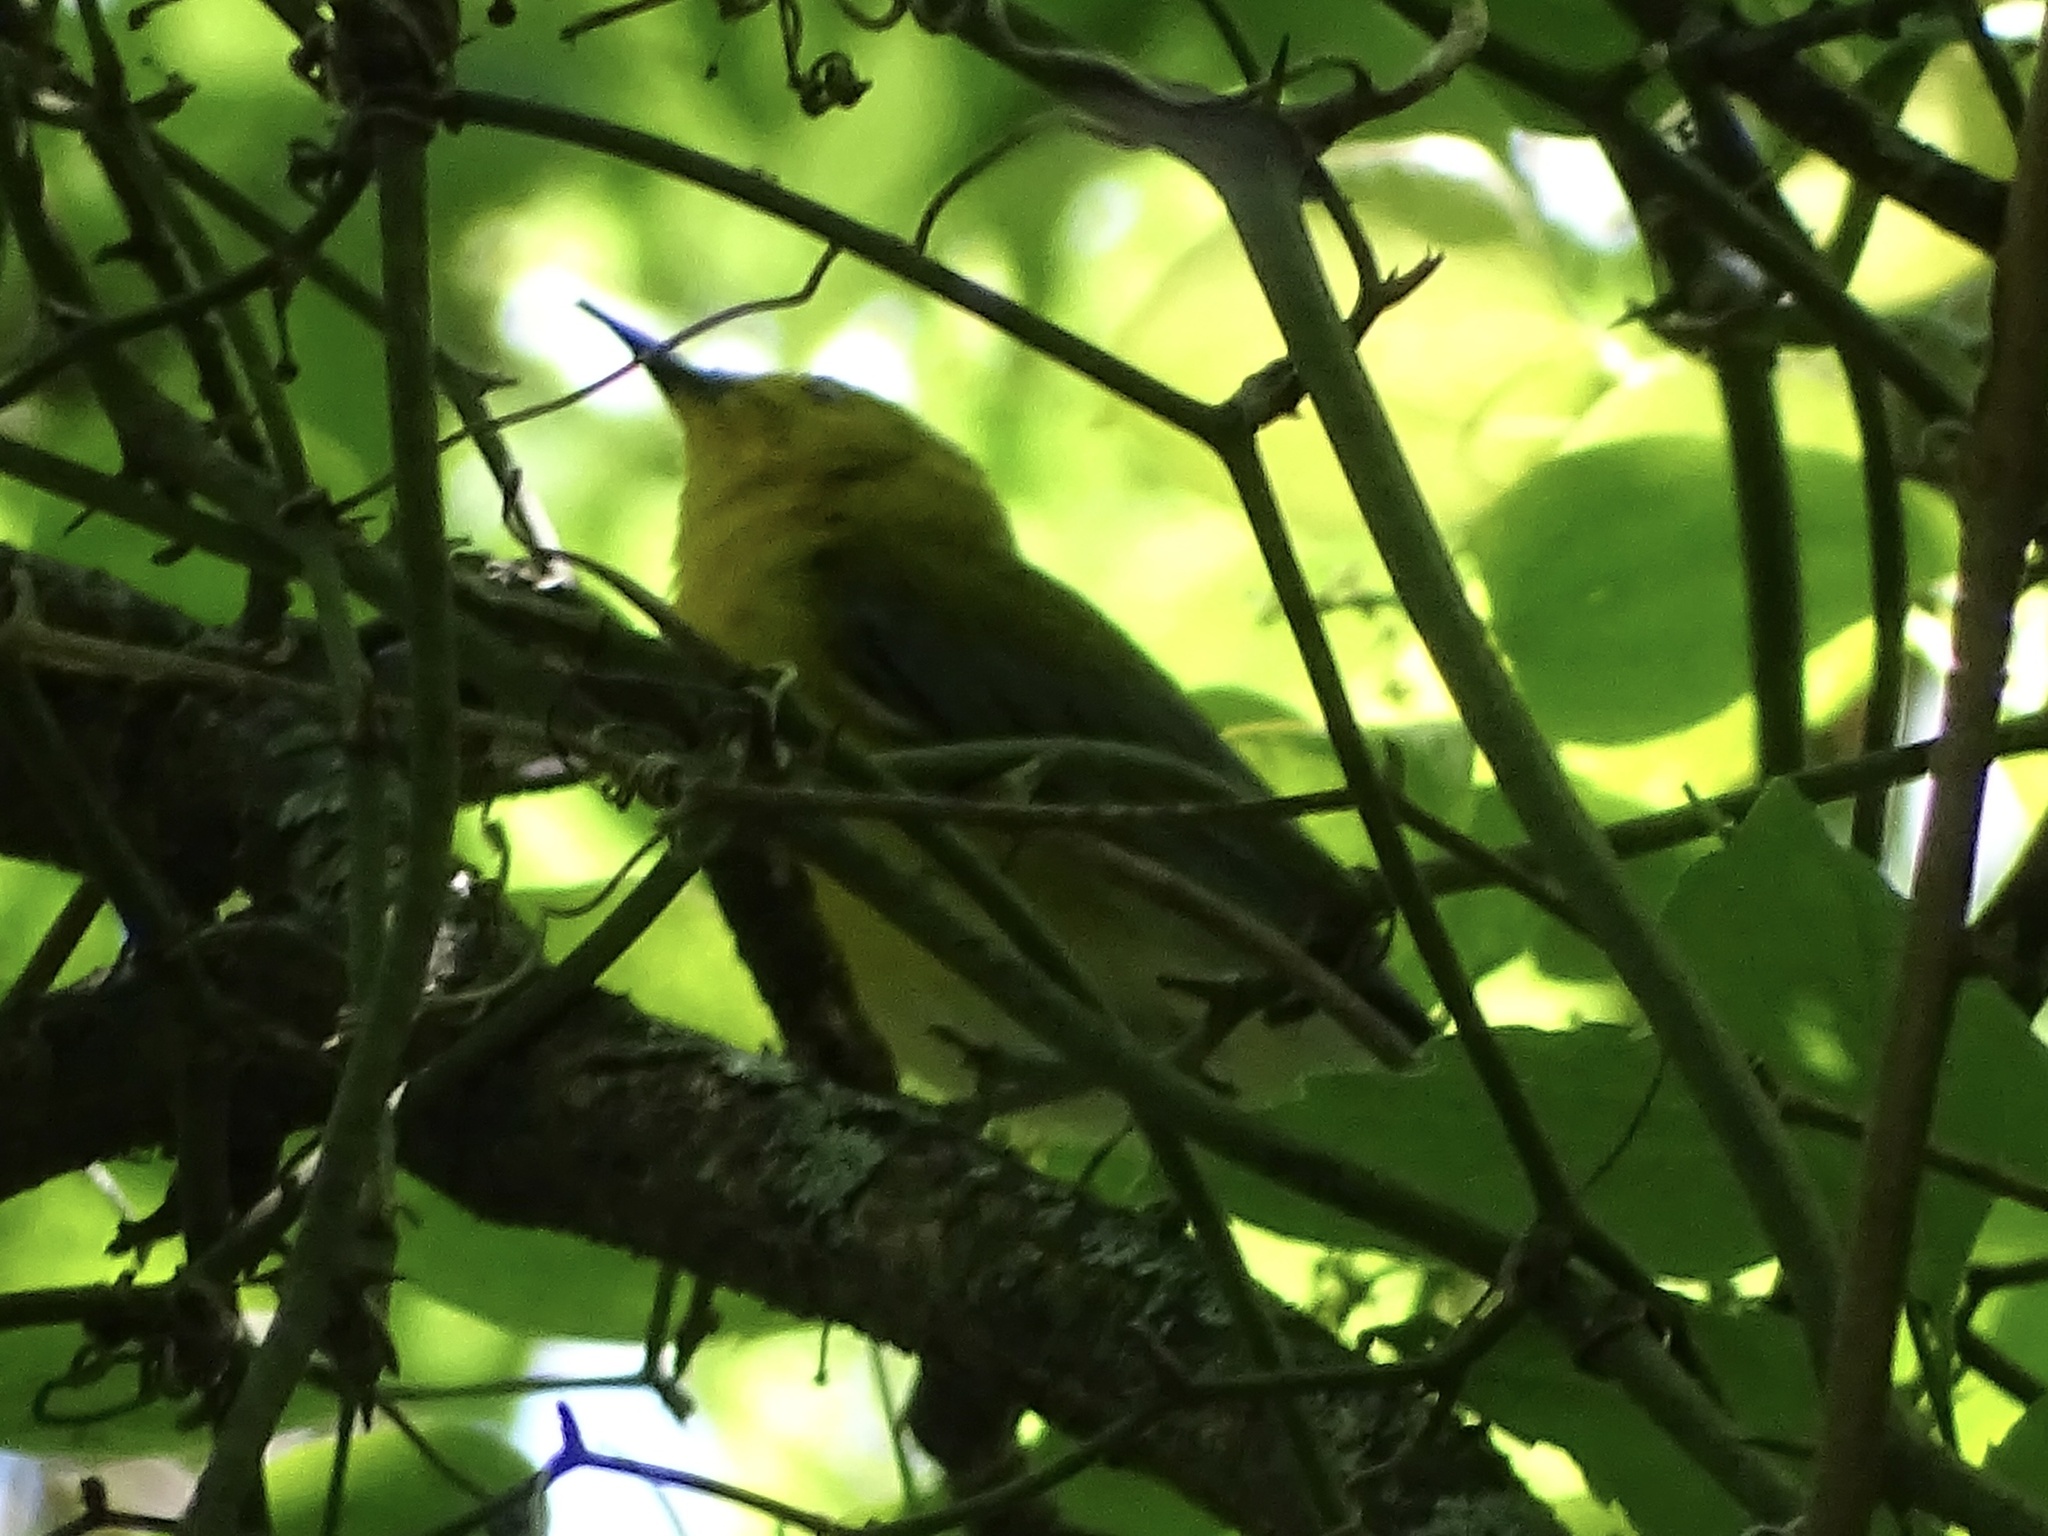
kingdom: Animalia
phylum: Chordata
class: Aves
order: Passeriformes
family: Parulidae
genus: Protonotaria
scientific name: Protonotaria citrea
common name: Prothonotary warbler
